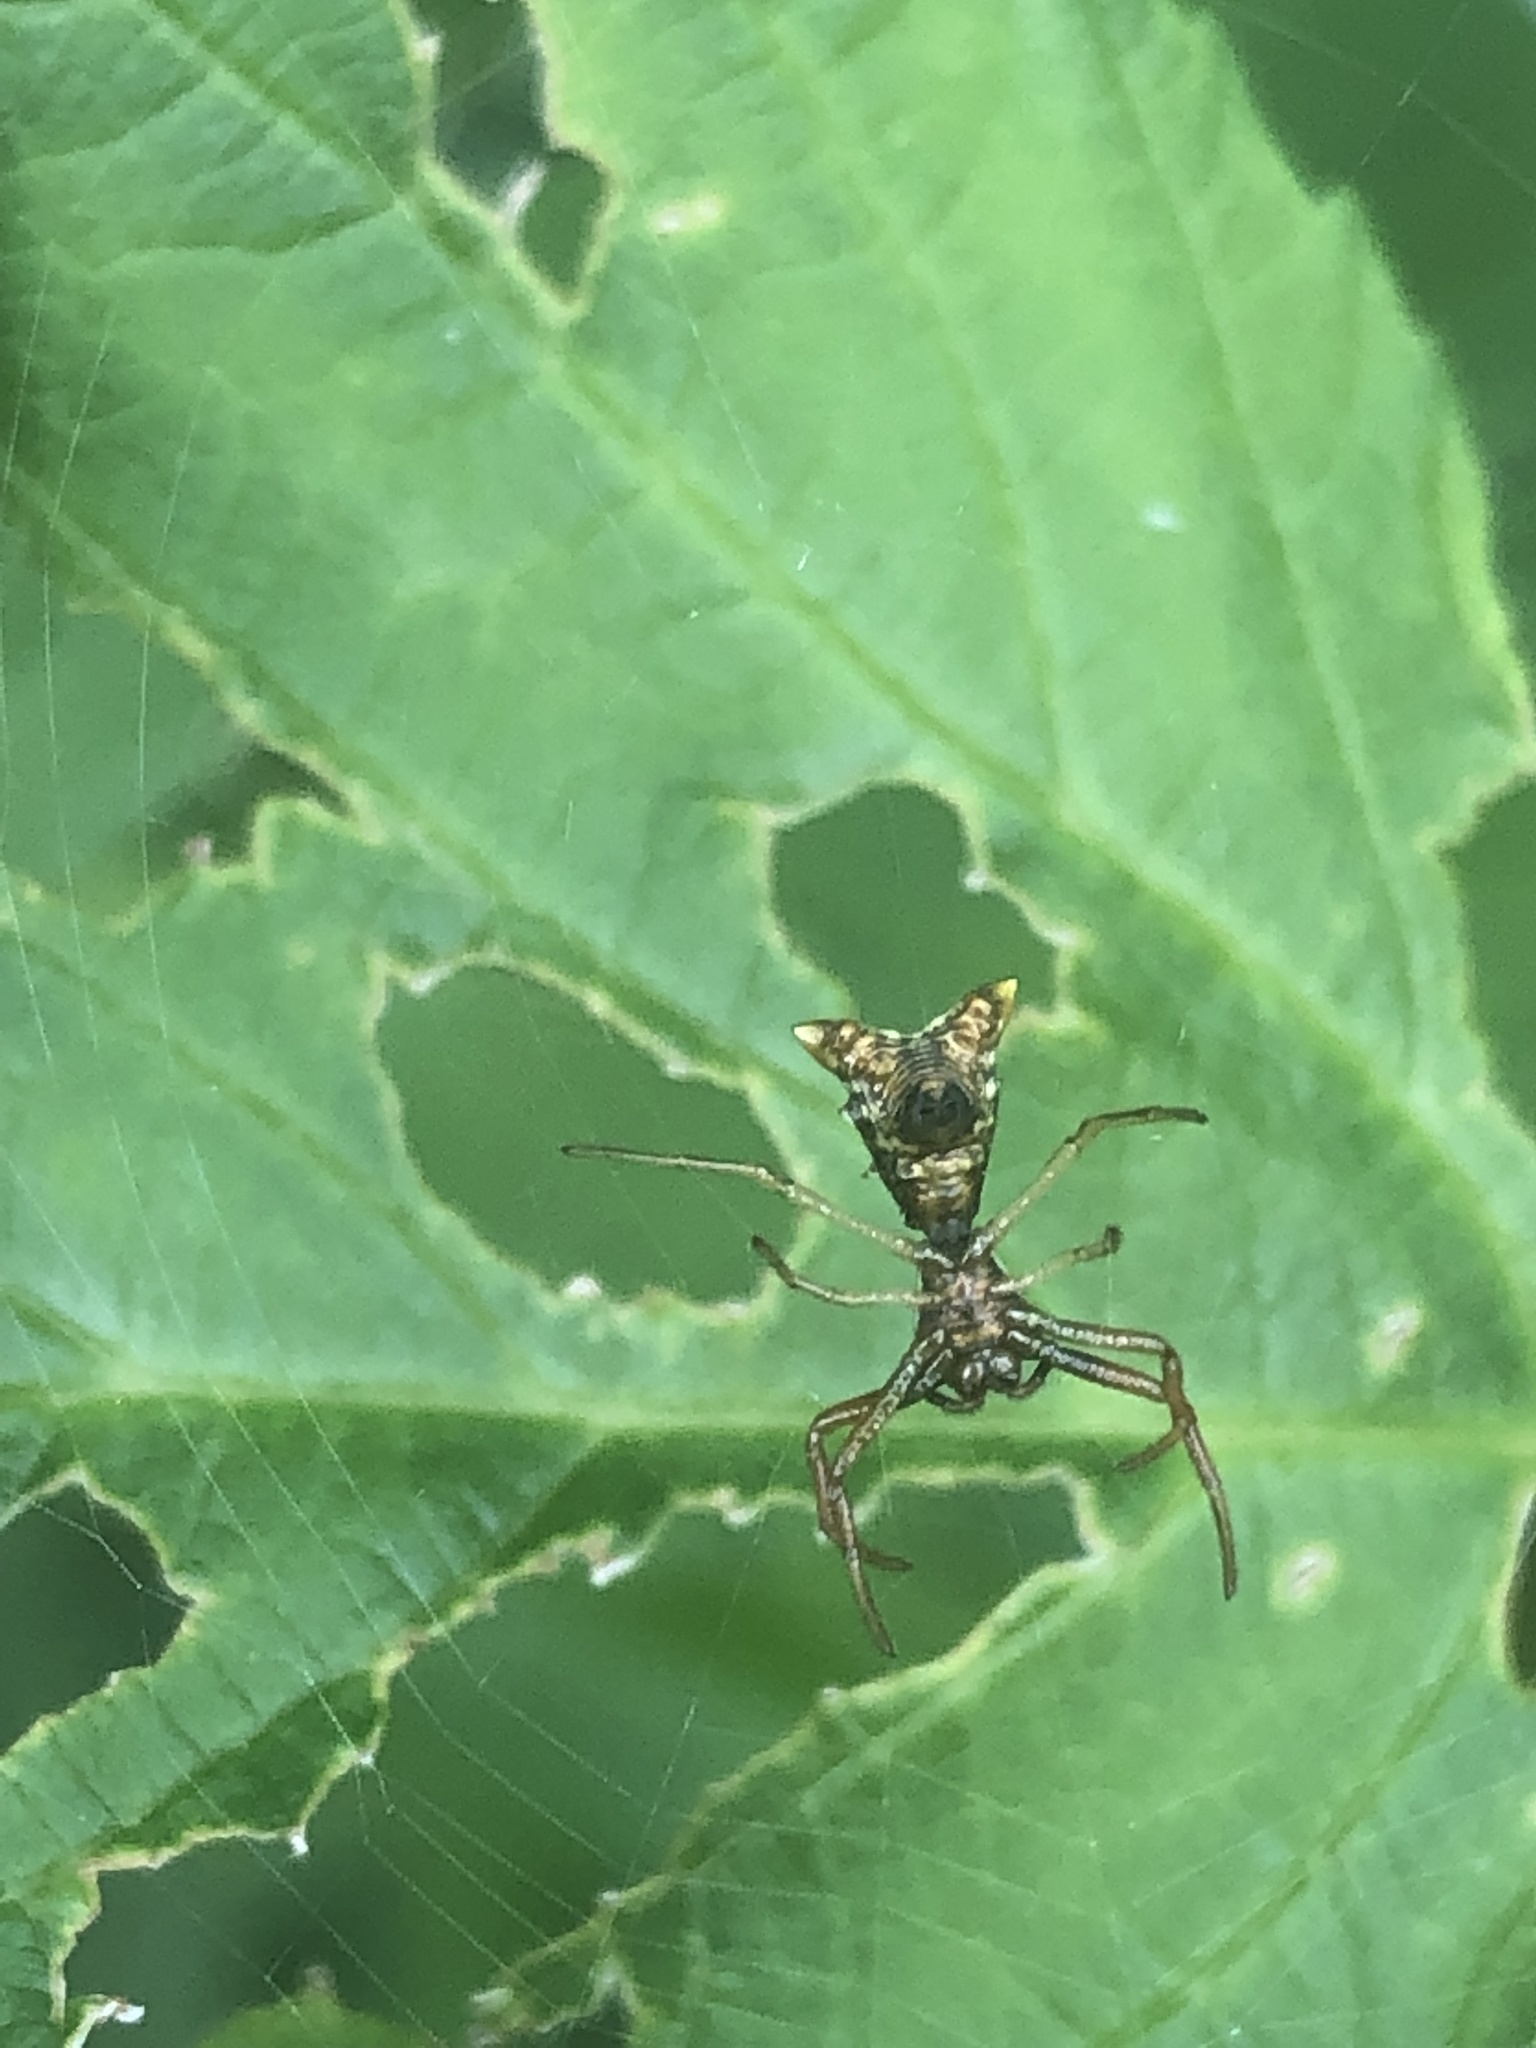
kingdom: Animalia
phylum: Arthropoda
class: Arachnida
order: Araneae
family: Araneidae
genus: Micrathena
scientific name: Micrathena sagittata
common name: Orb weavers
